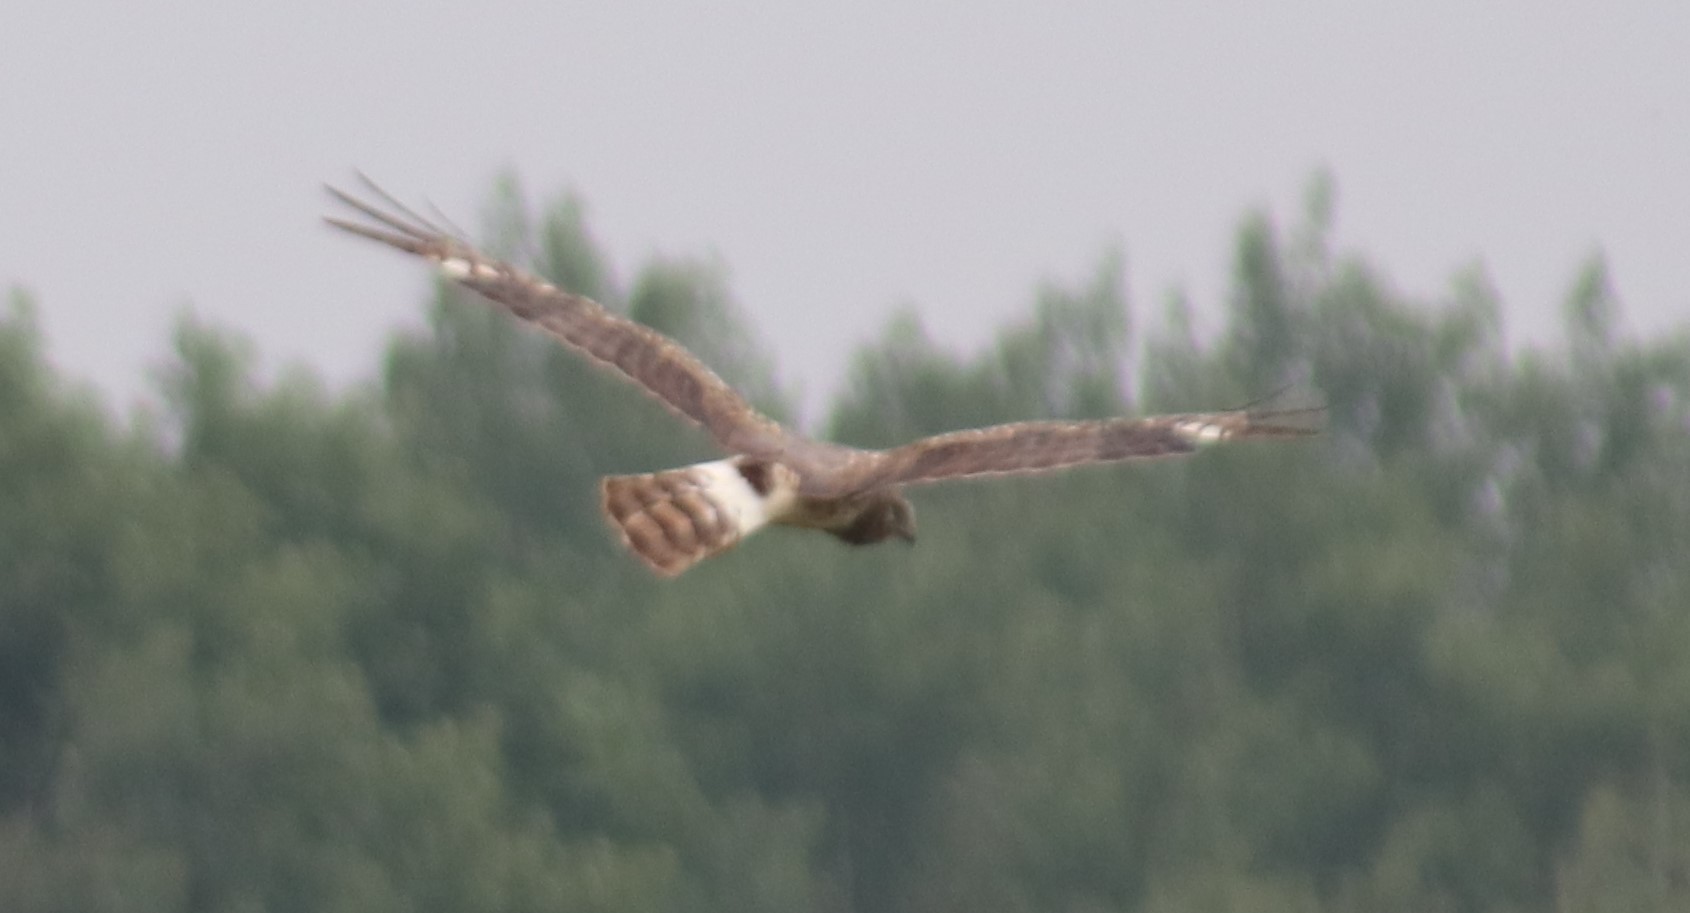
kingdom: Animalia
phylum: Chordata
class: Aves
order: Accipitriformes
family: Accipitridae
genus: Circus
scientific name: Circus cyaneus
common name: Hen harrier
